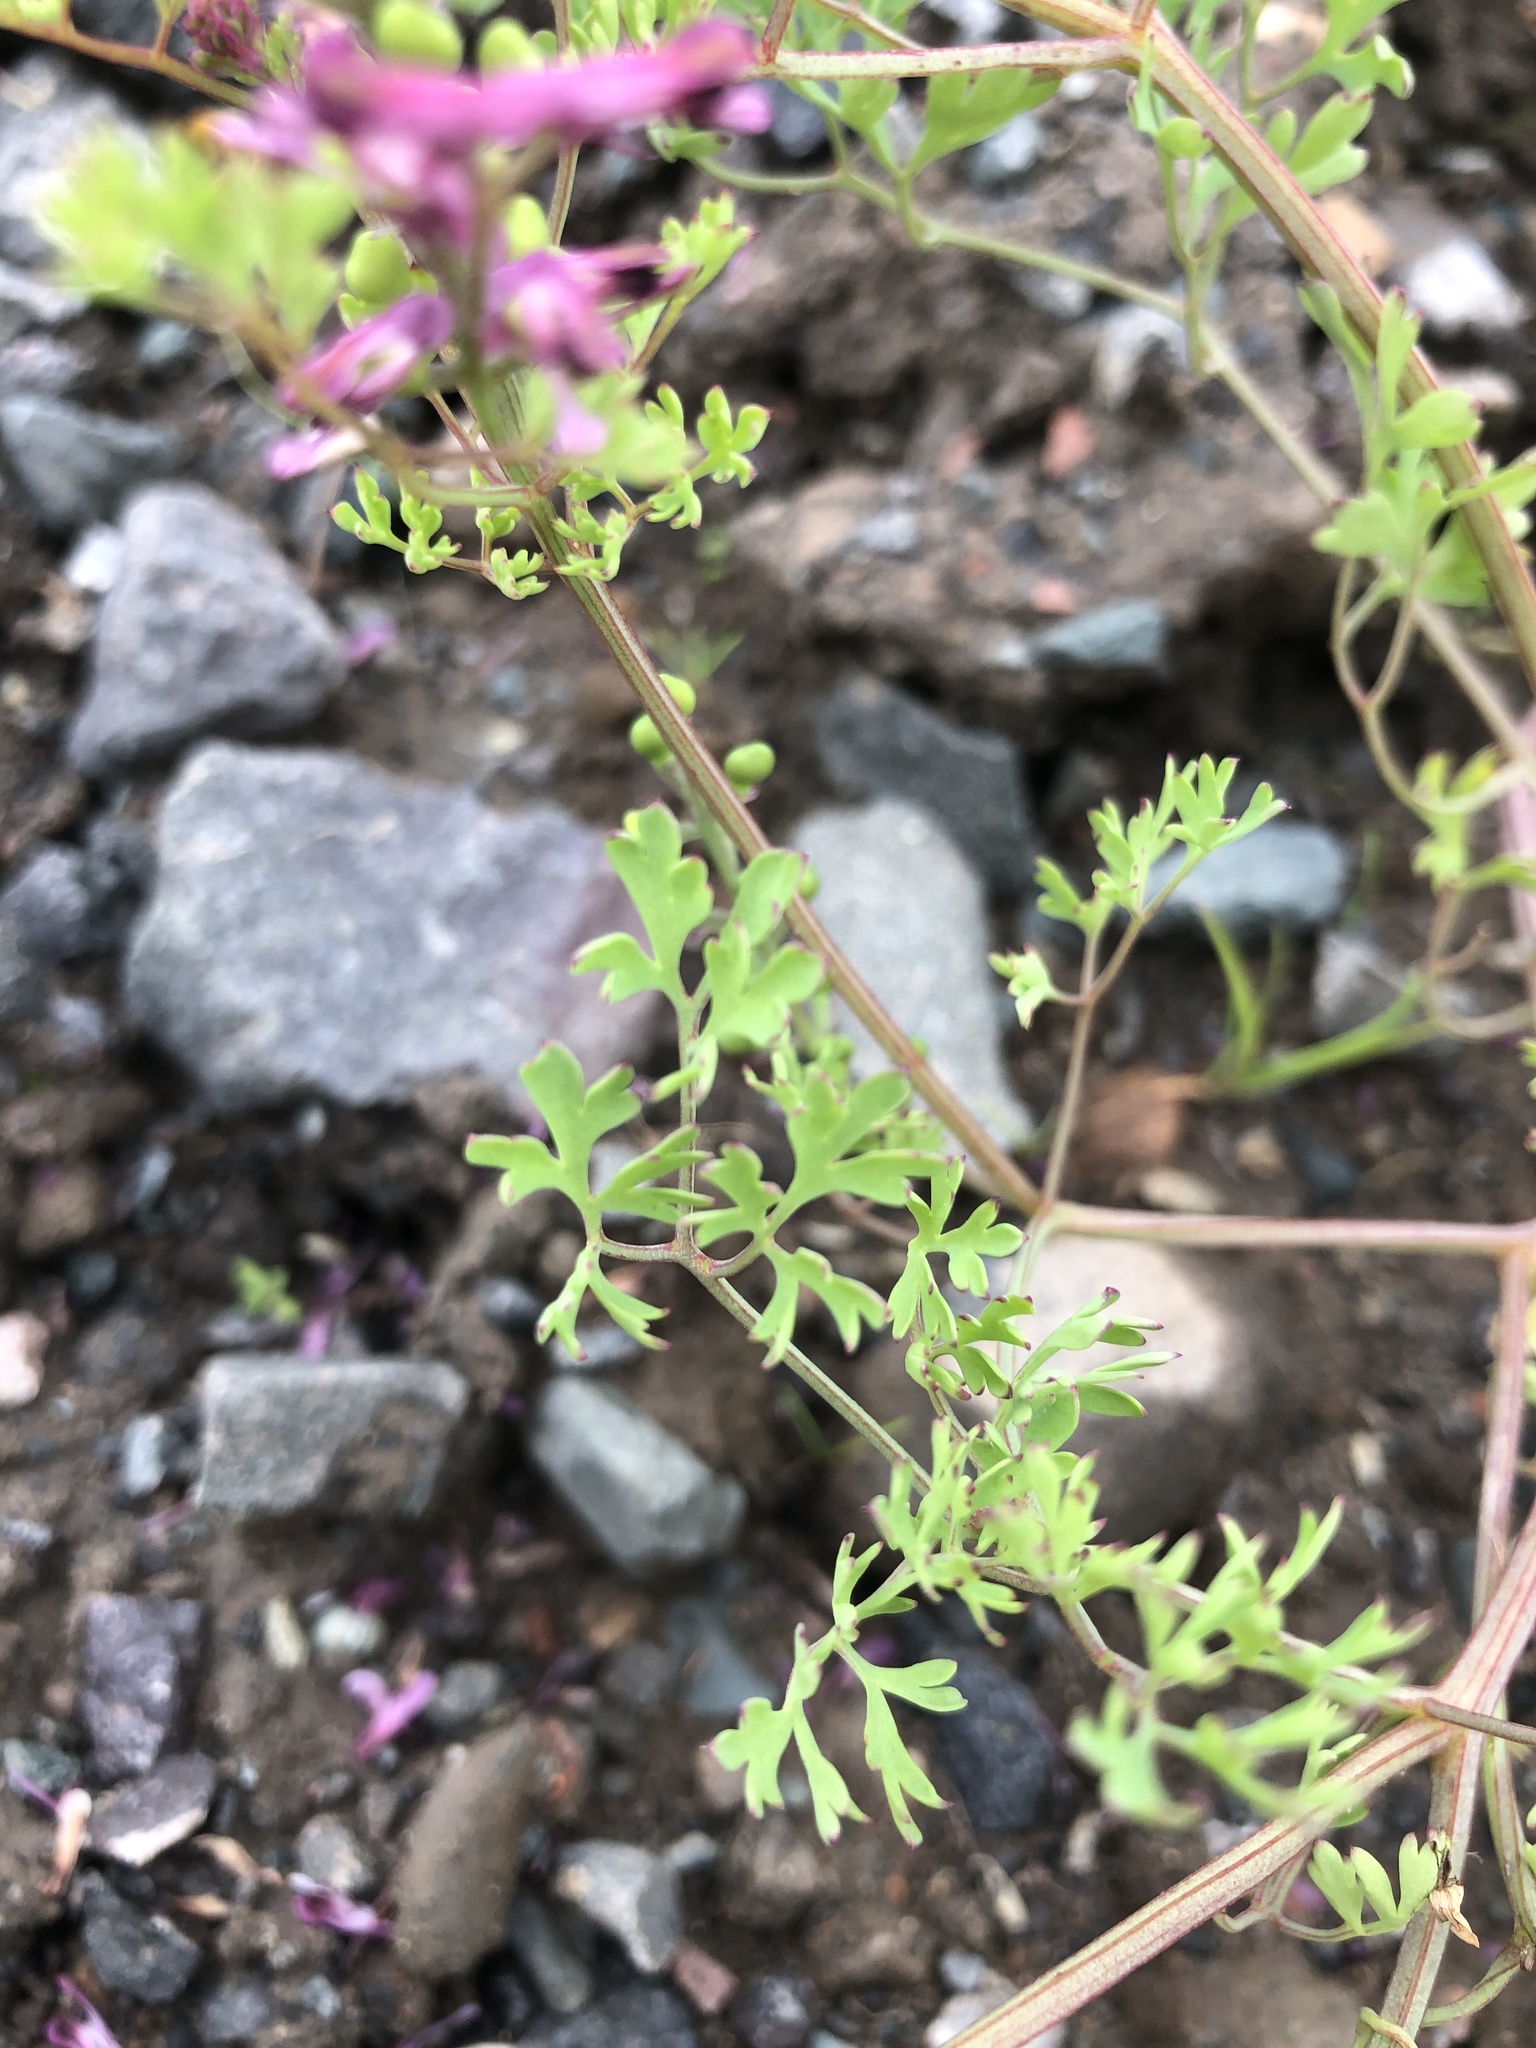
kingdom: Plantae
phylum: Tracheophyta
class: Magnoliopsida
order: Ranunculales
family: Papaveraceae
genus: Fumaria
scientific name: Fumaria officinalis
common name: Common fumitory
